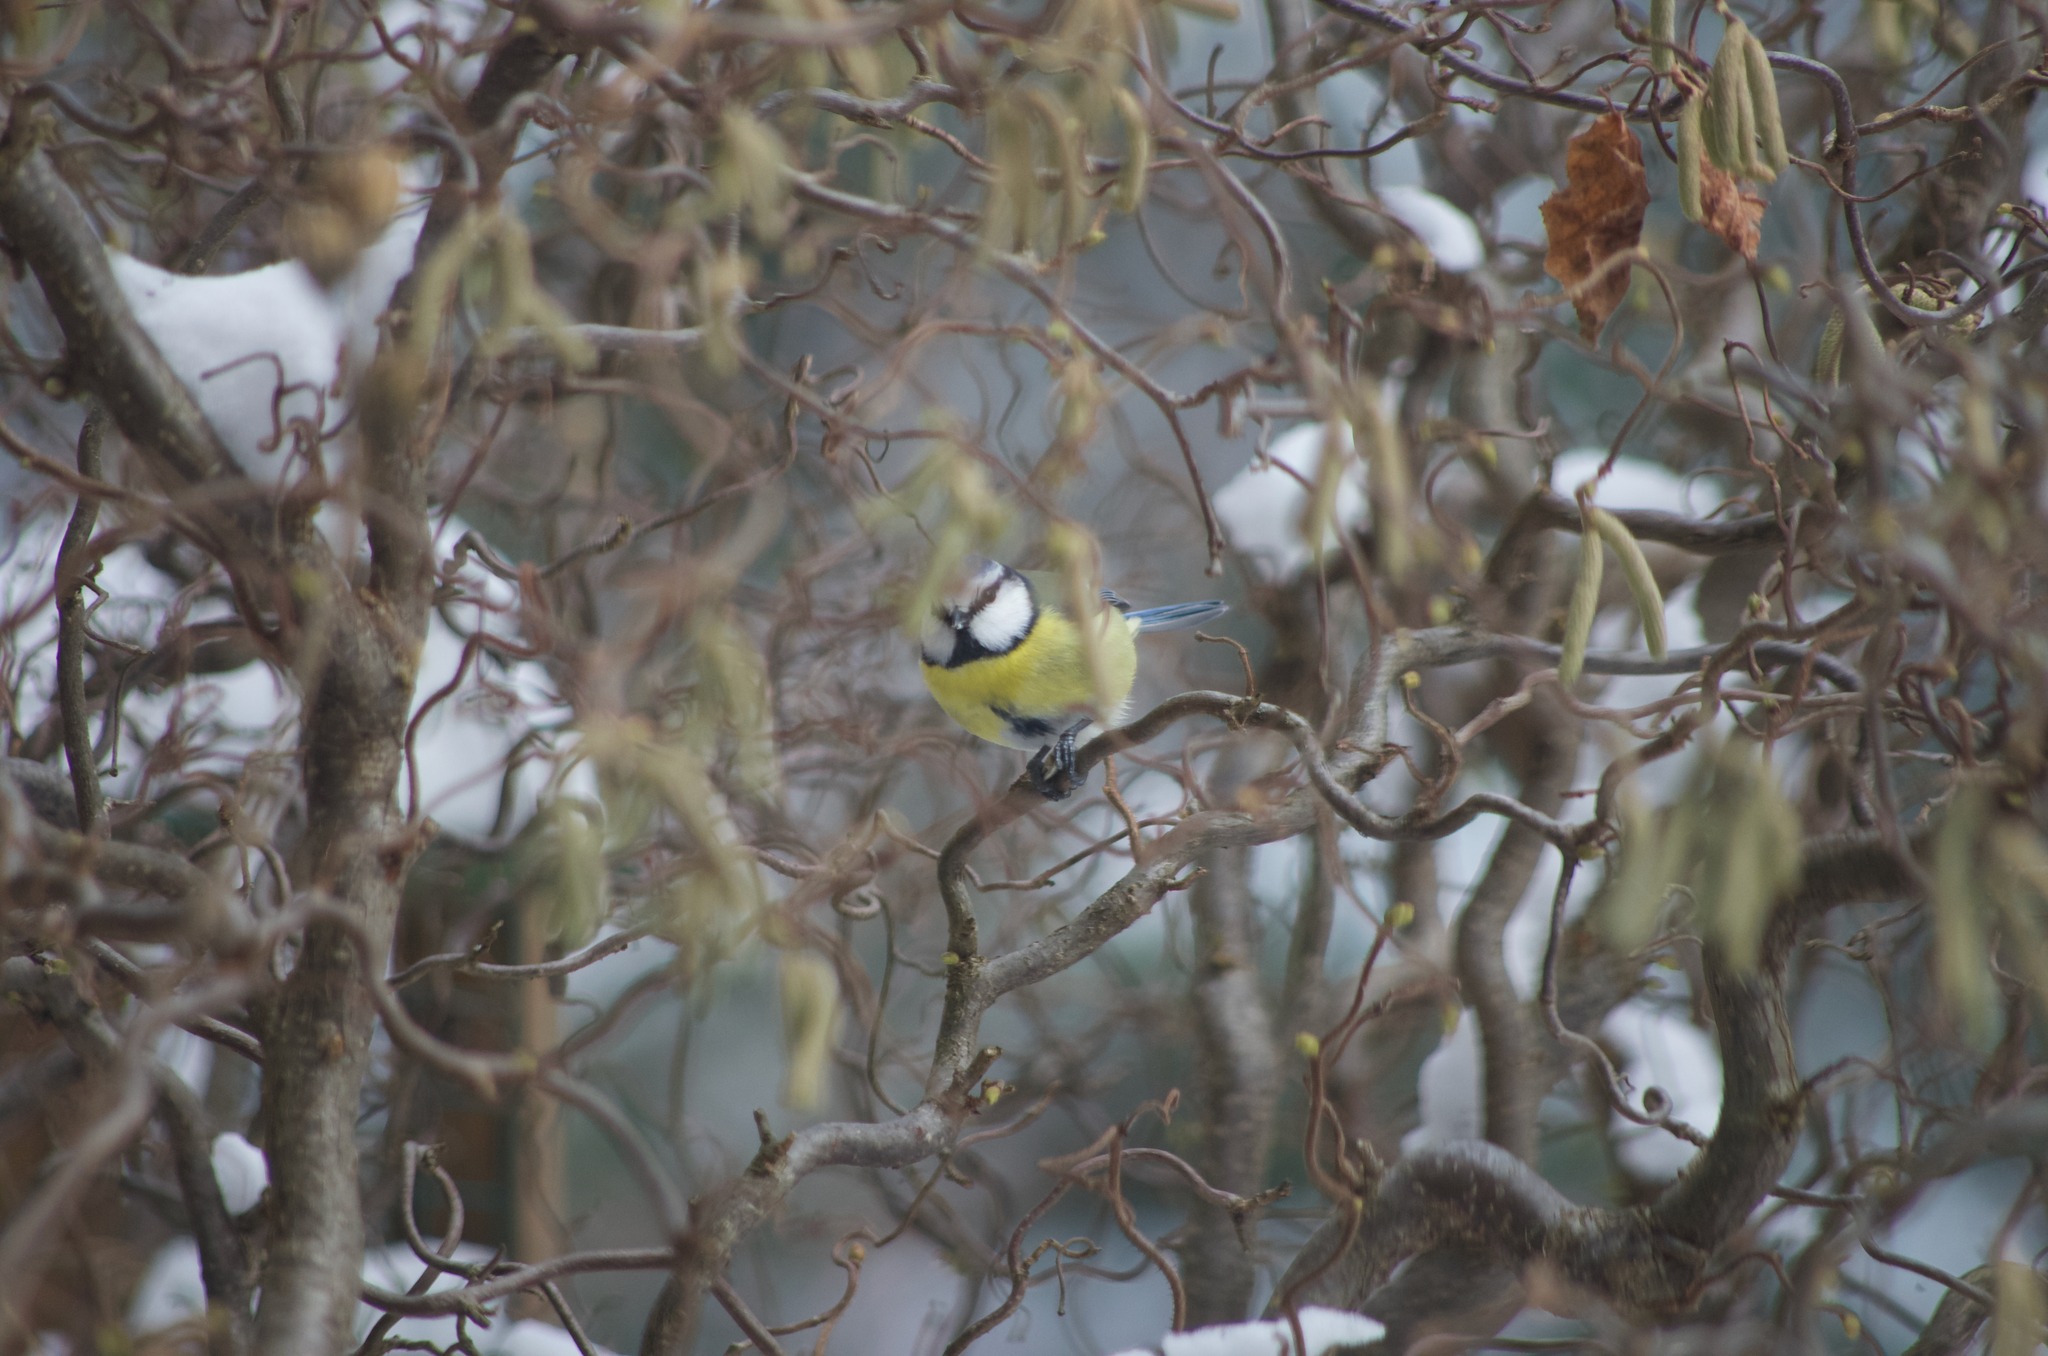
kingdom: Animalia
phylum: Chordata
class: Aves
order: Passeriformes
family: Paridae
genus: Cyanistes
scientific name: Cyanistes caeruleus
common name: Eurasian blue tit
